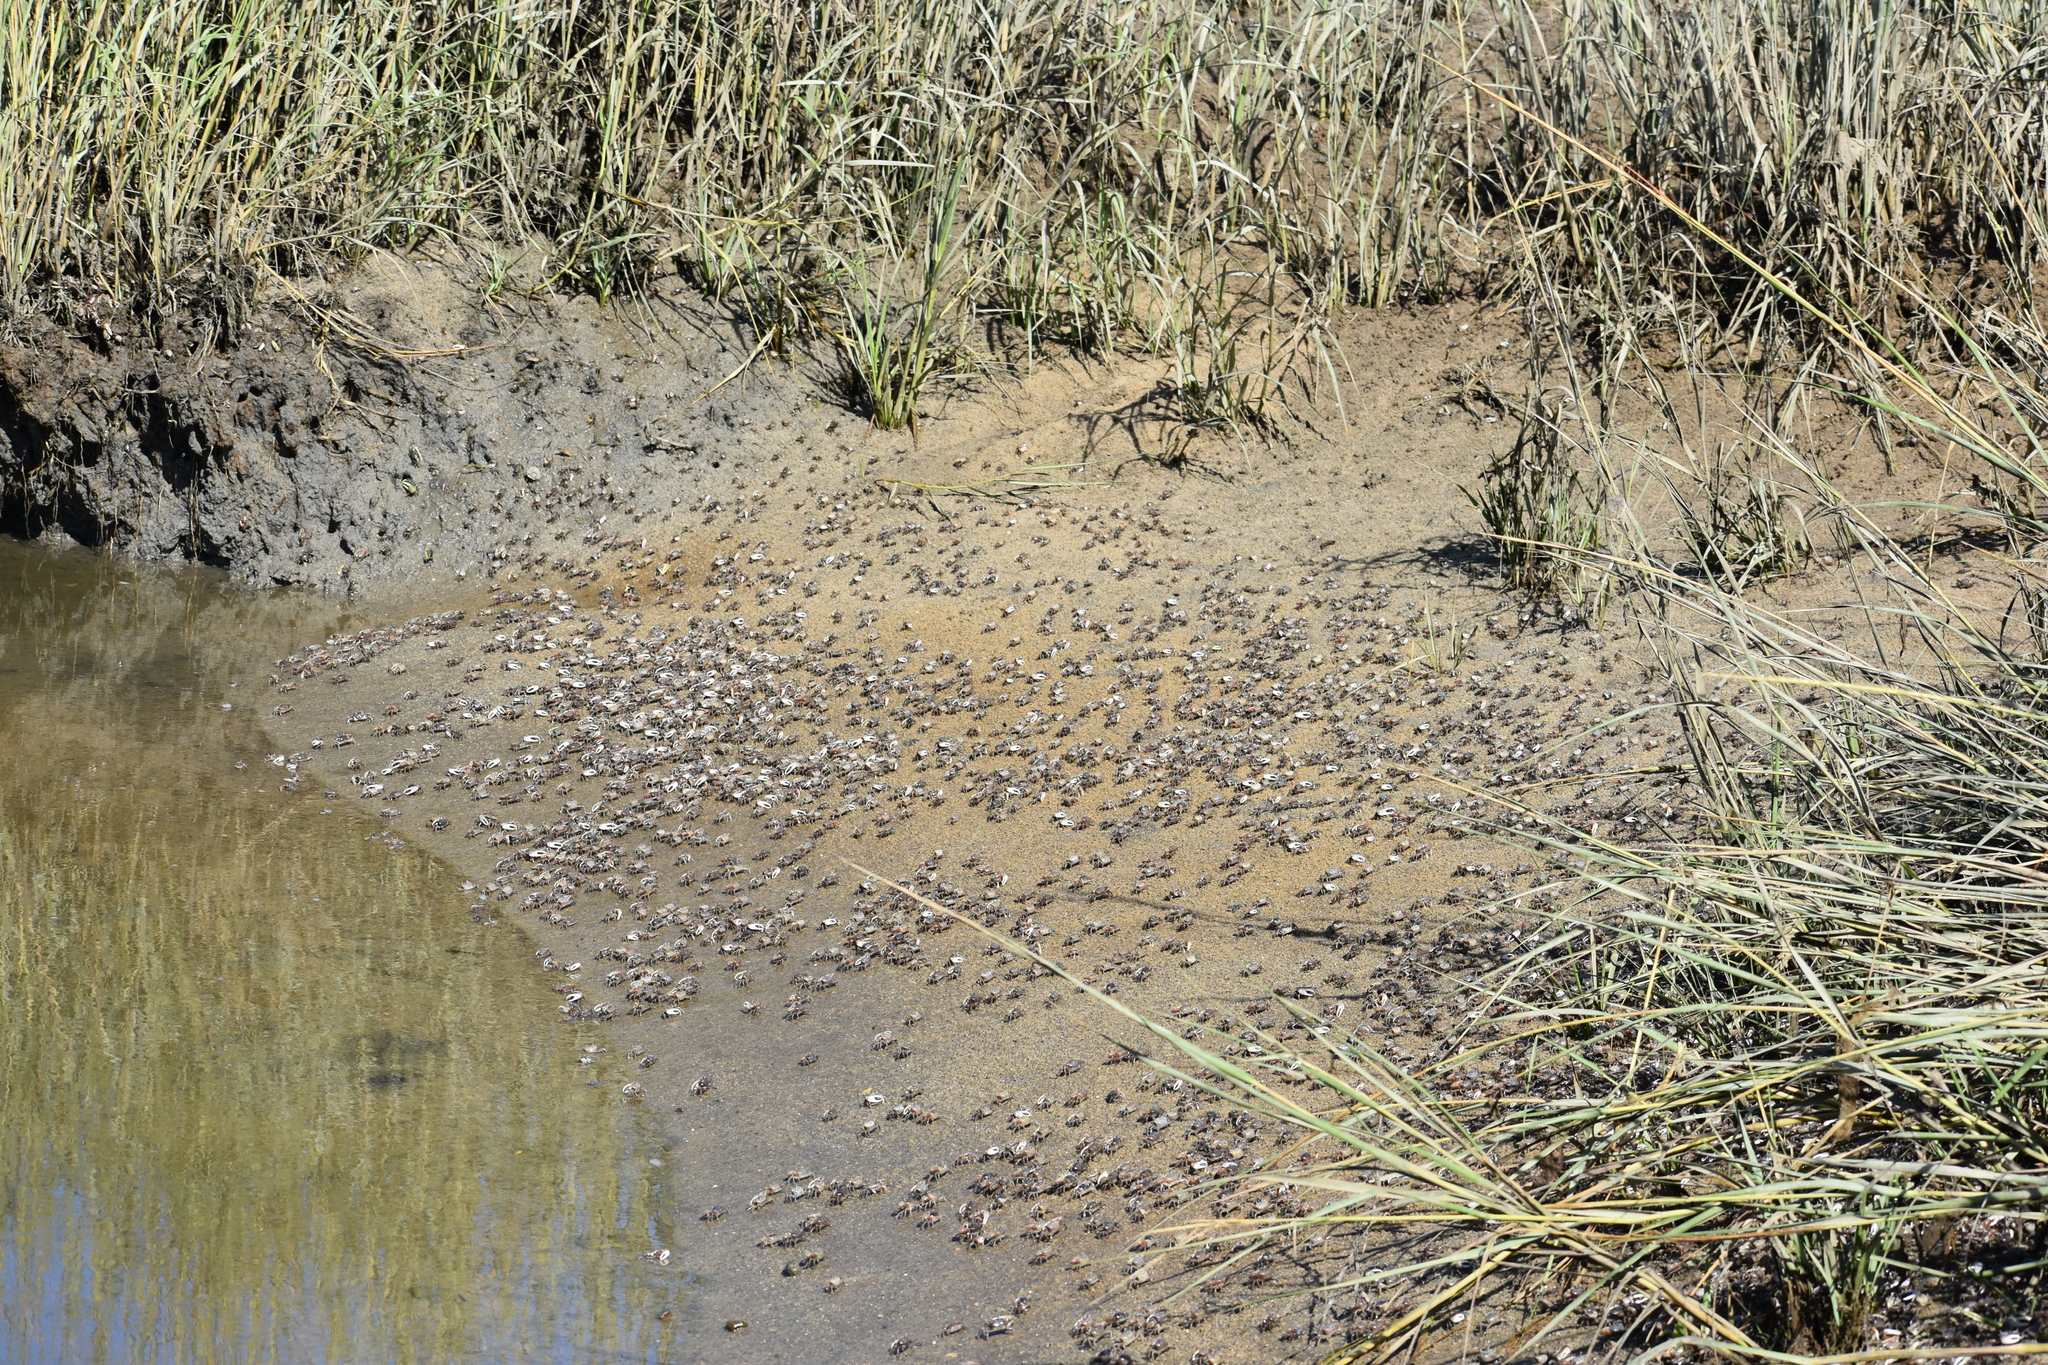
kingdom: Animalia
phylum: Arthropoda
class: Malacostraca
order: Decapoda
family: Ocypodidae
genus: Leptuca
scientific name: Leptuca pugilator
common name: Atlantic sand fiddler crab
